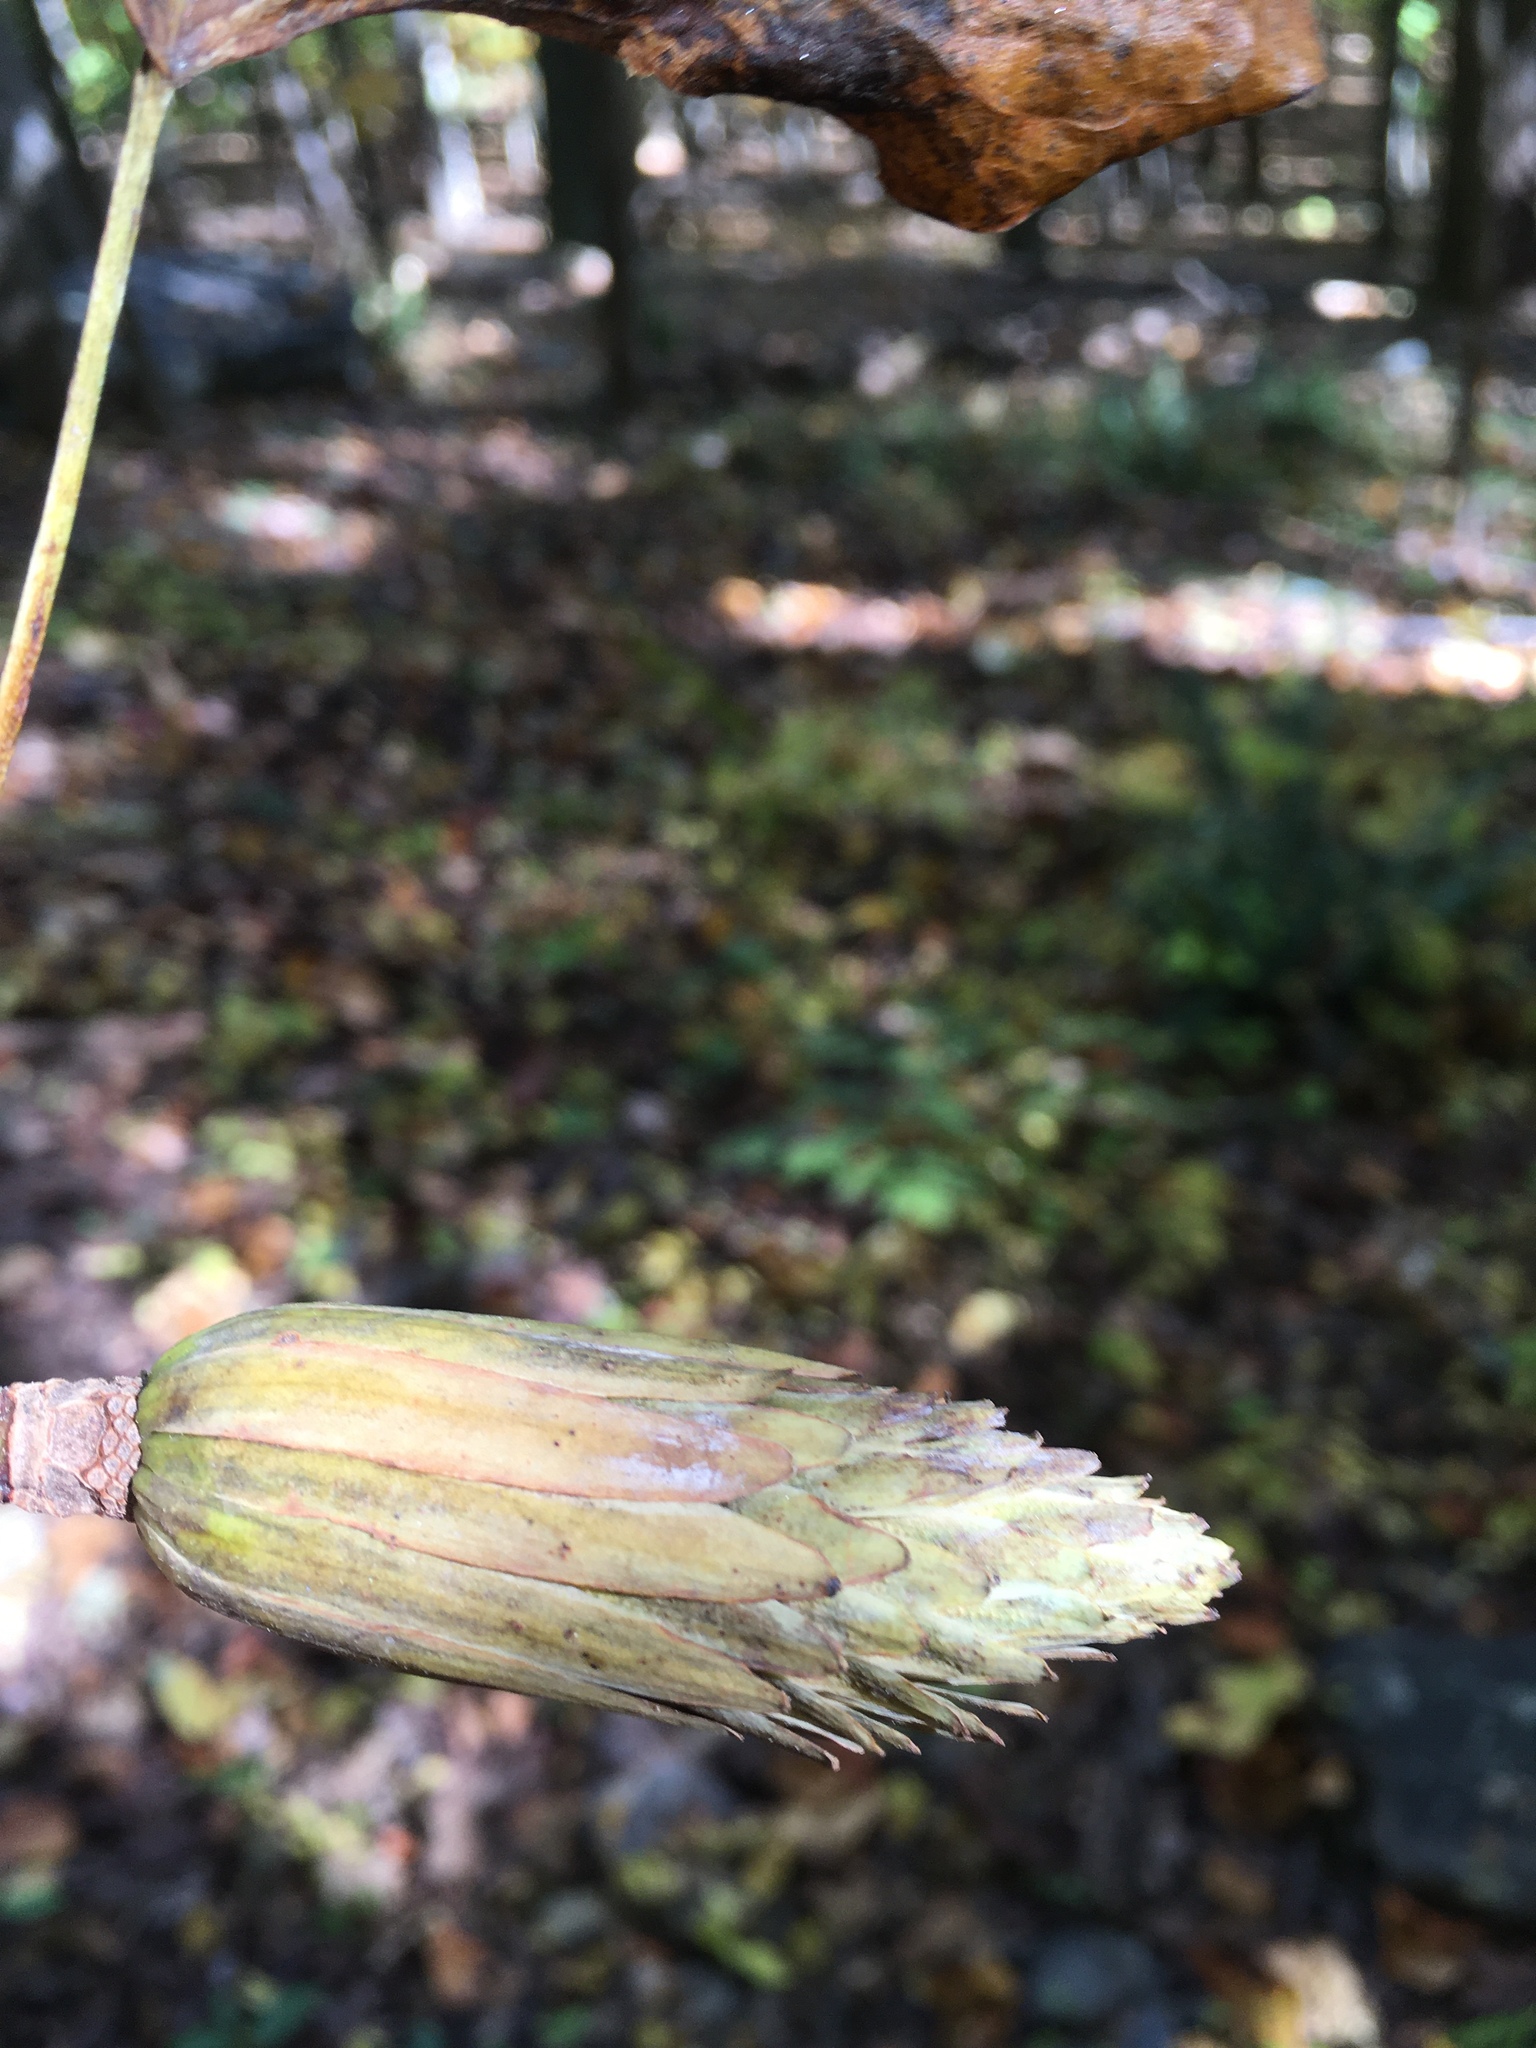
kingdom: Plantae
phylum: Tracheophyta
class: Magnoliopsida
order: Magnoliales
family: Magnoliaceae
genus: Liriodendron
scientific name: Liriodendron tulipifera
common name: Tulip tree
